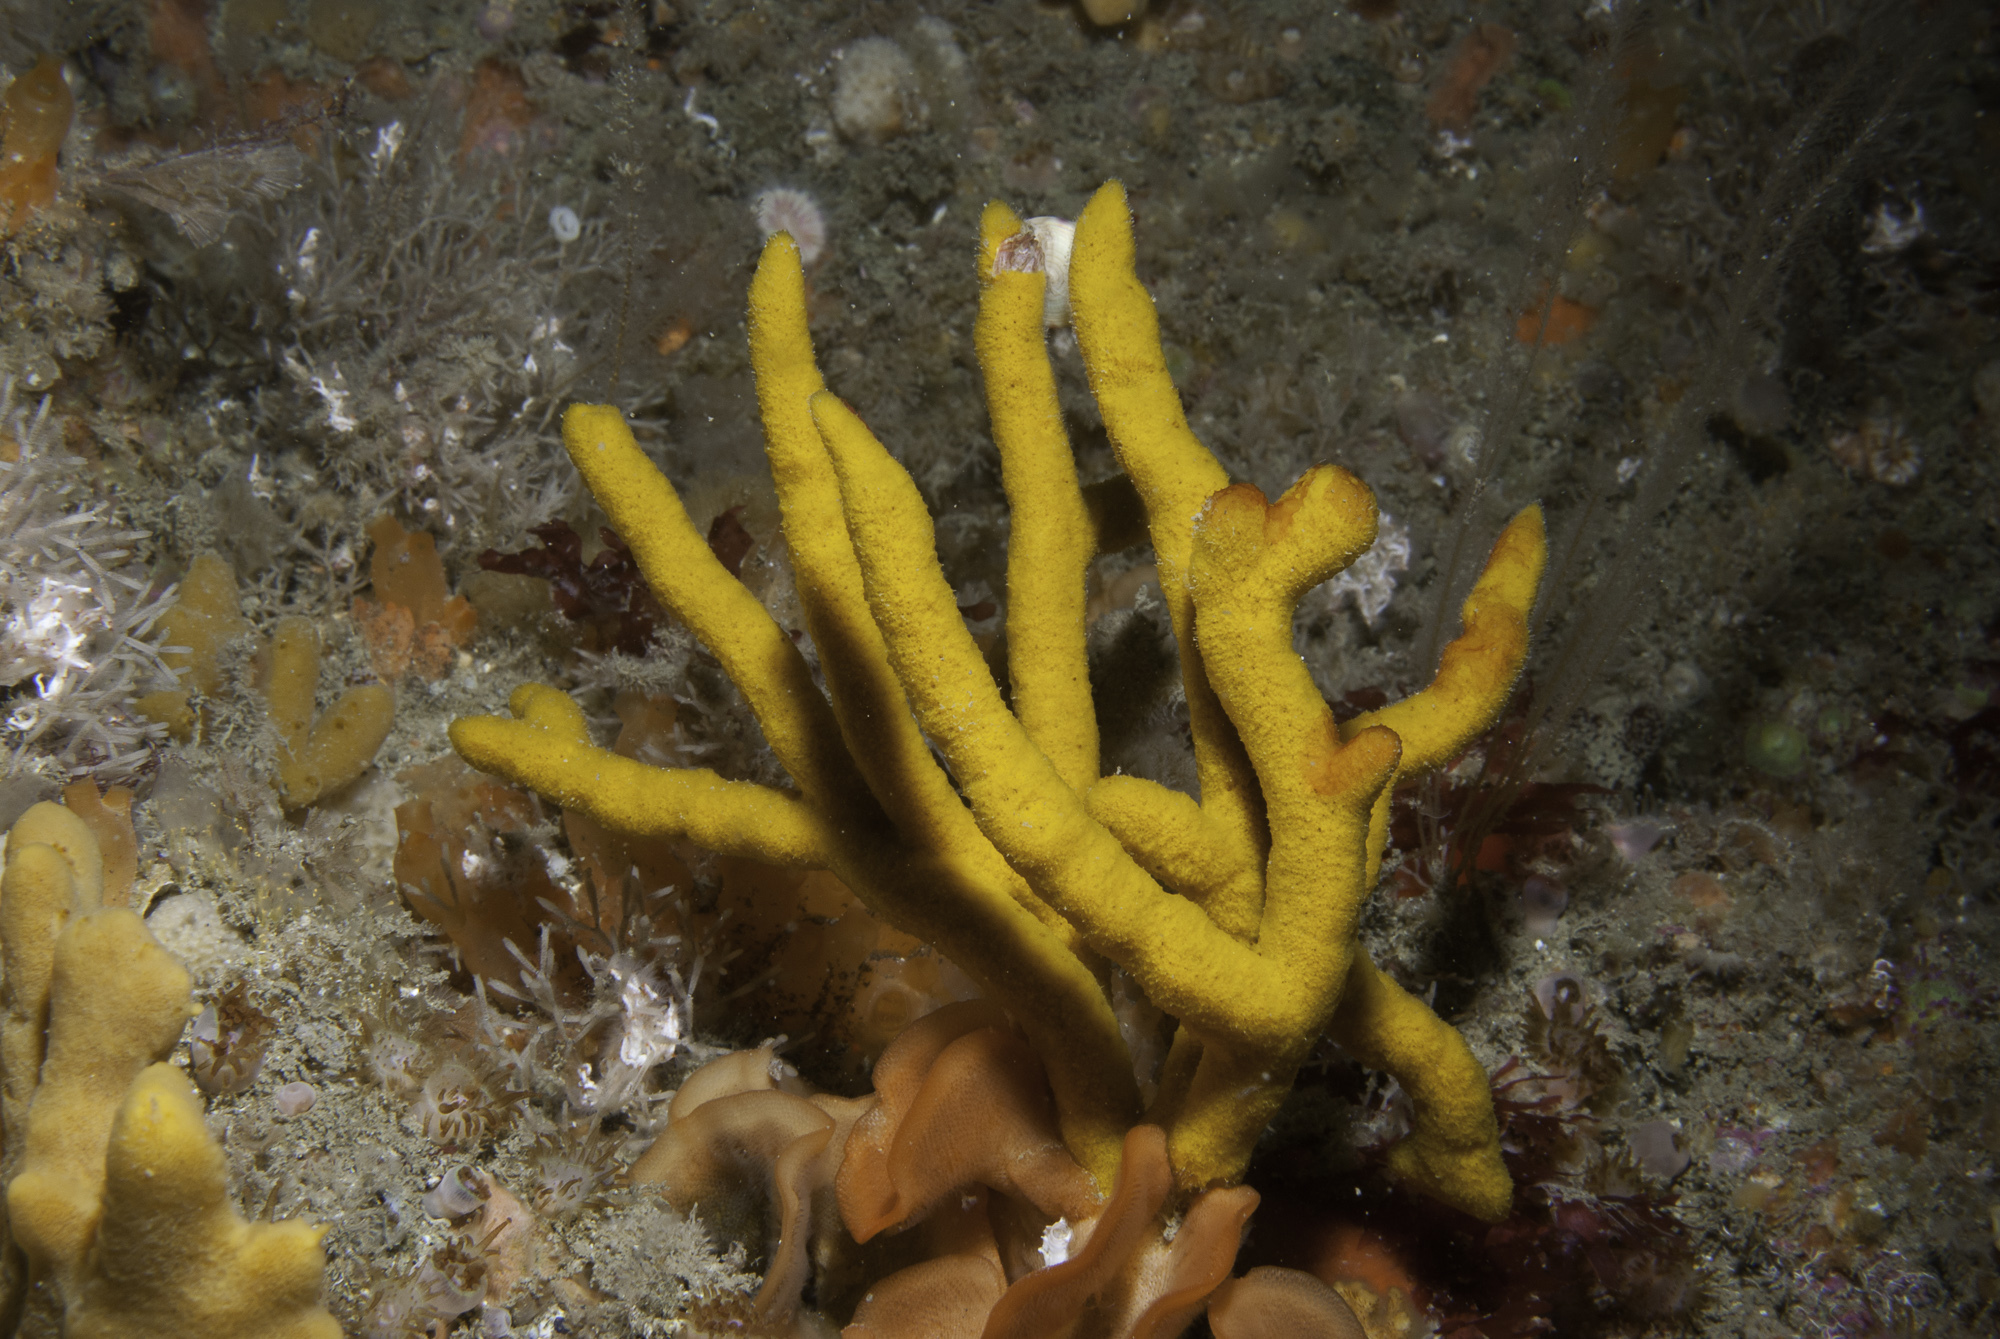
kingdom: Animalia
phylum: Porifera
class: Demospongiae
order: Axinellida
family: Raspailiidae
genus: Raspailia
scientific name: Raspailia agnata
